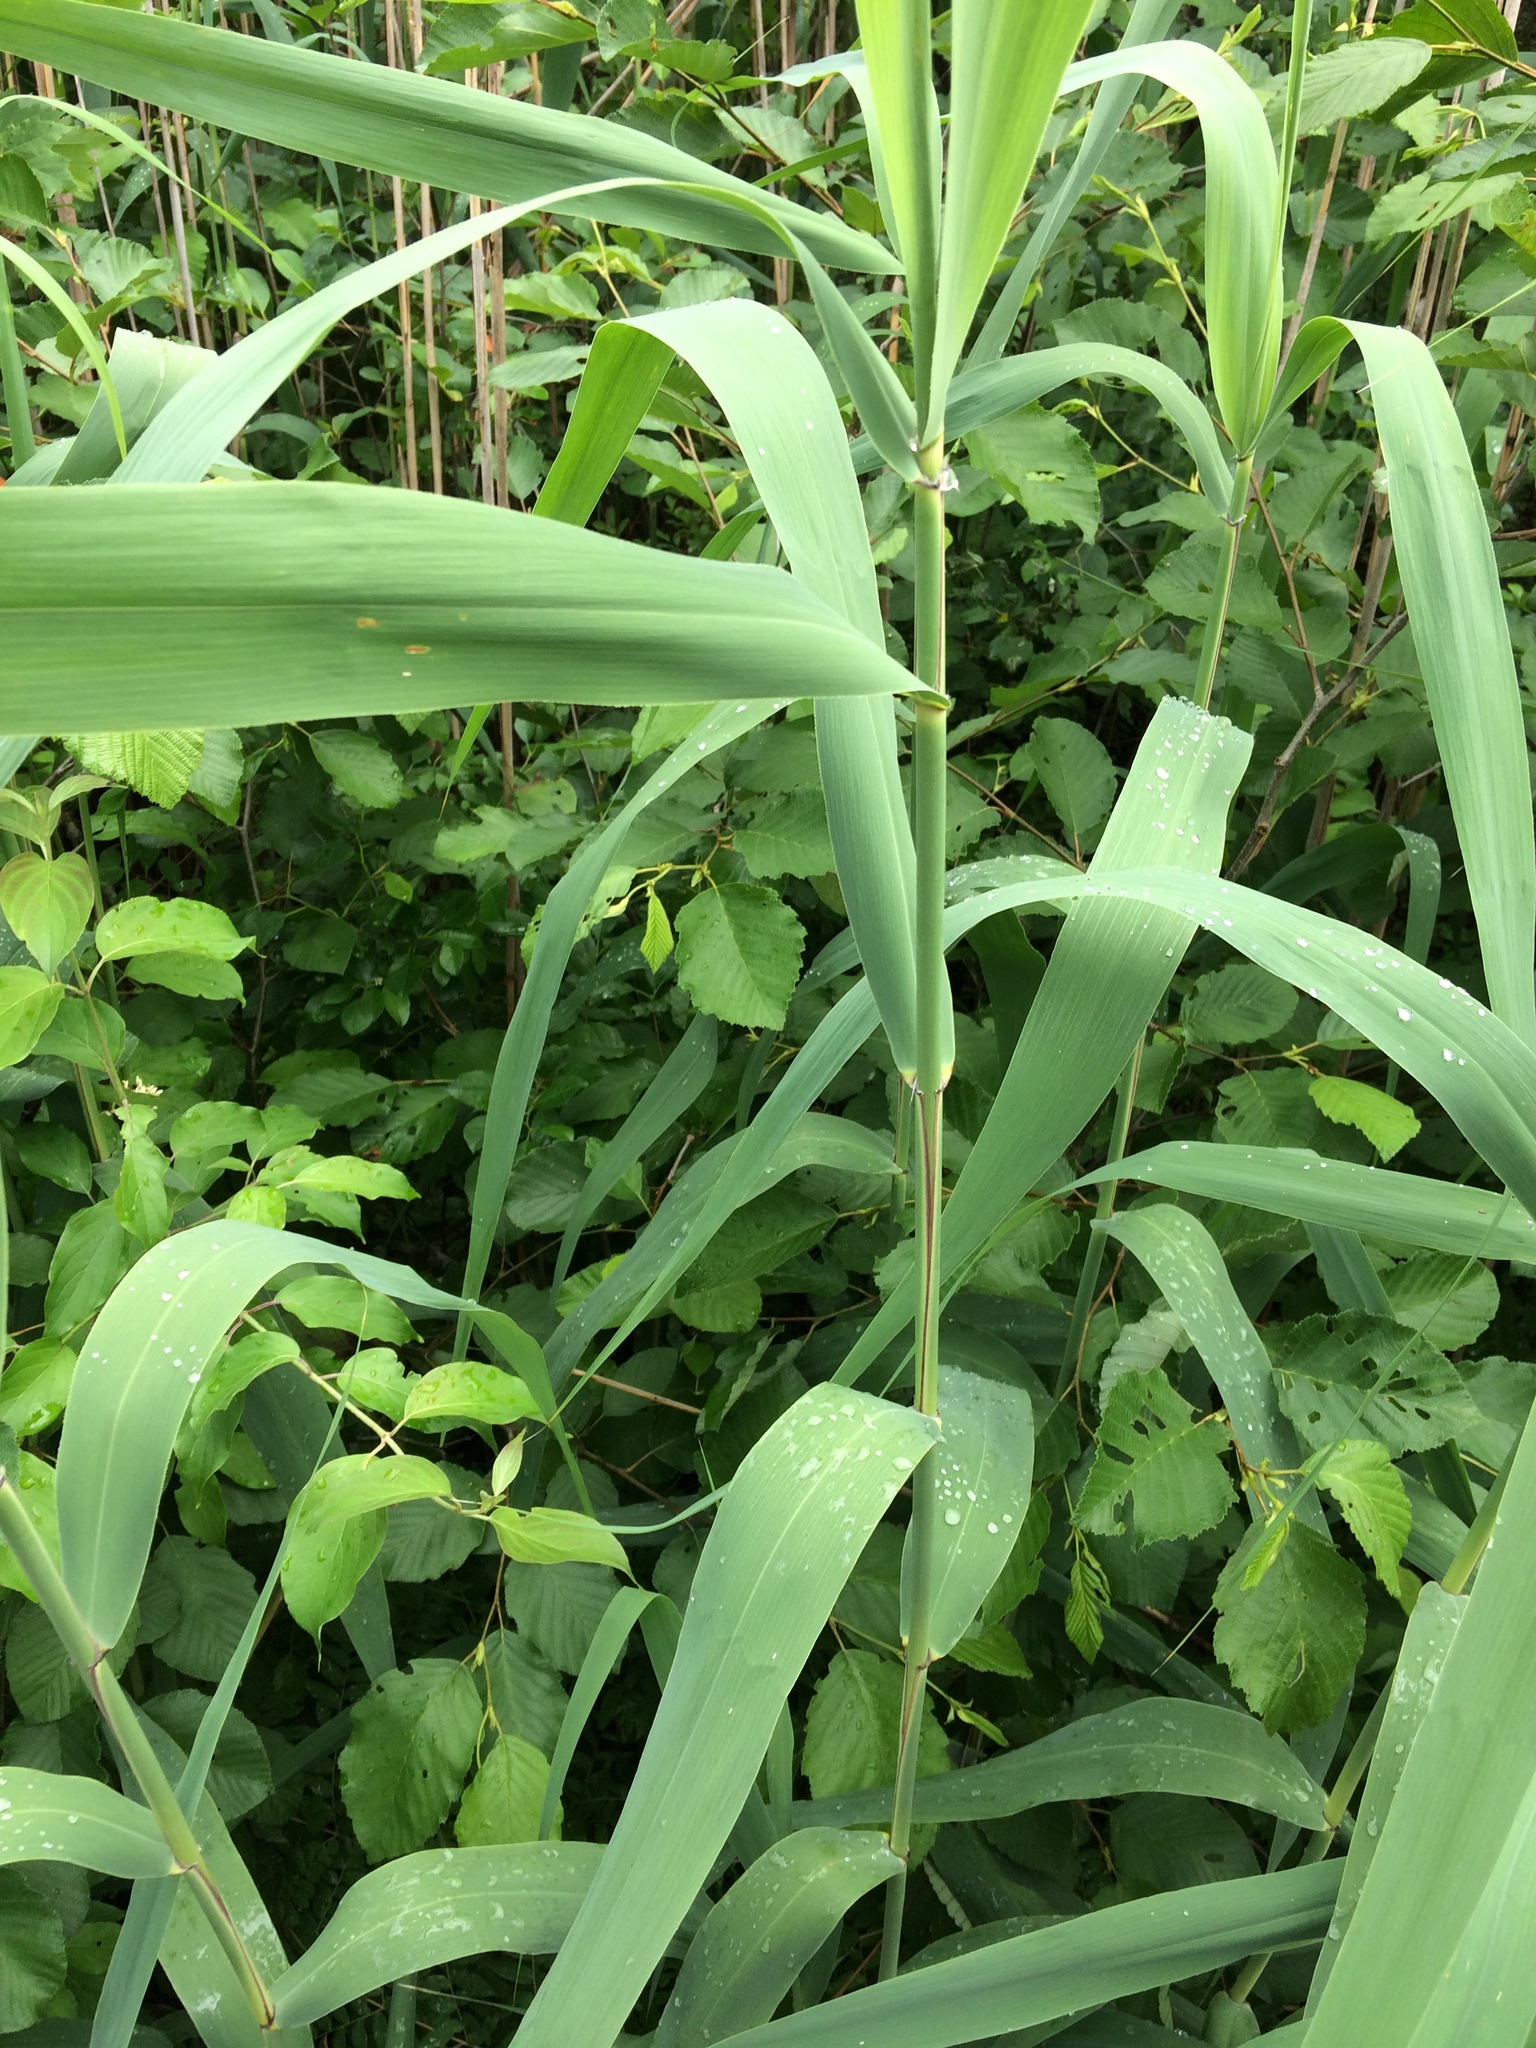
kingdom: Plantae
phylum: Tracheophyta
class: Liliopsida
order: Poales
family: Poaceae
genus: Phragmites
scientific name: Phragmites australis
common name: Common reed
